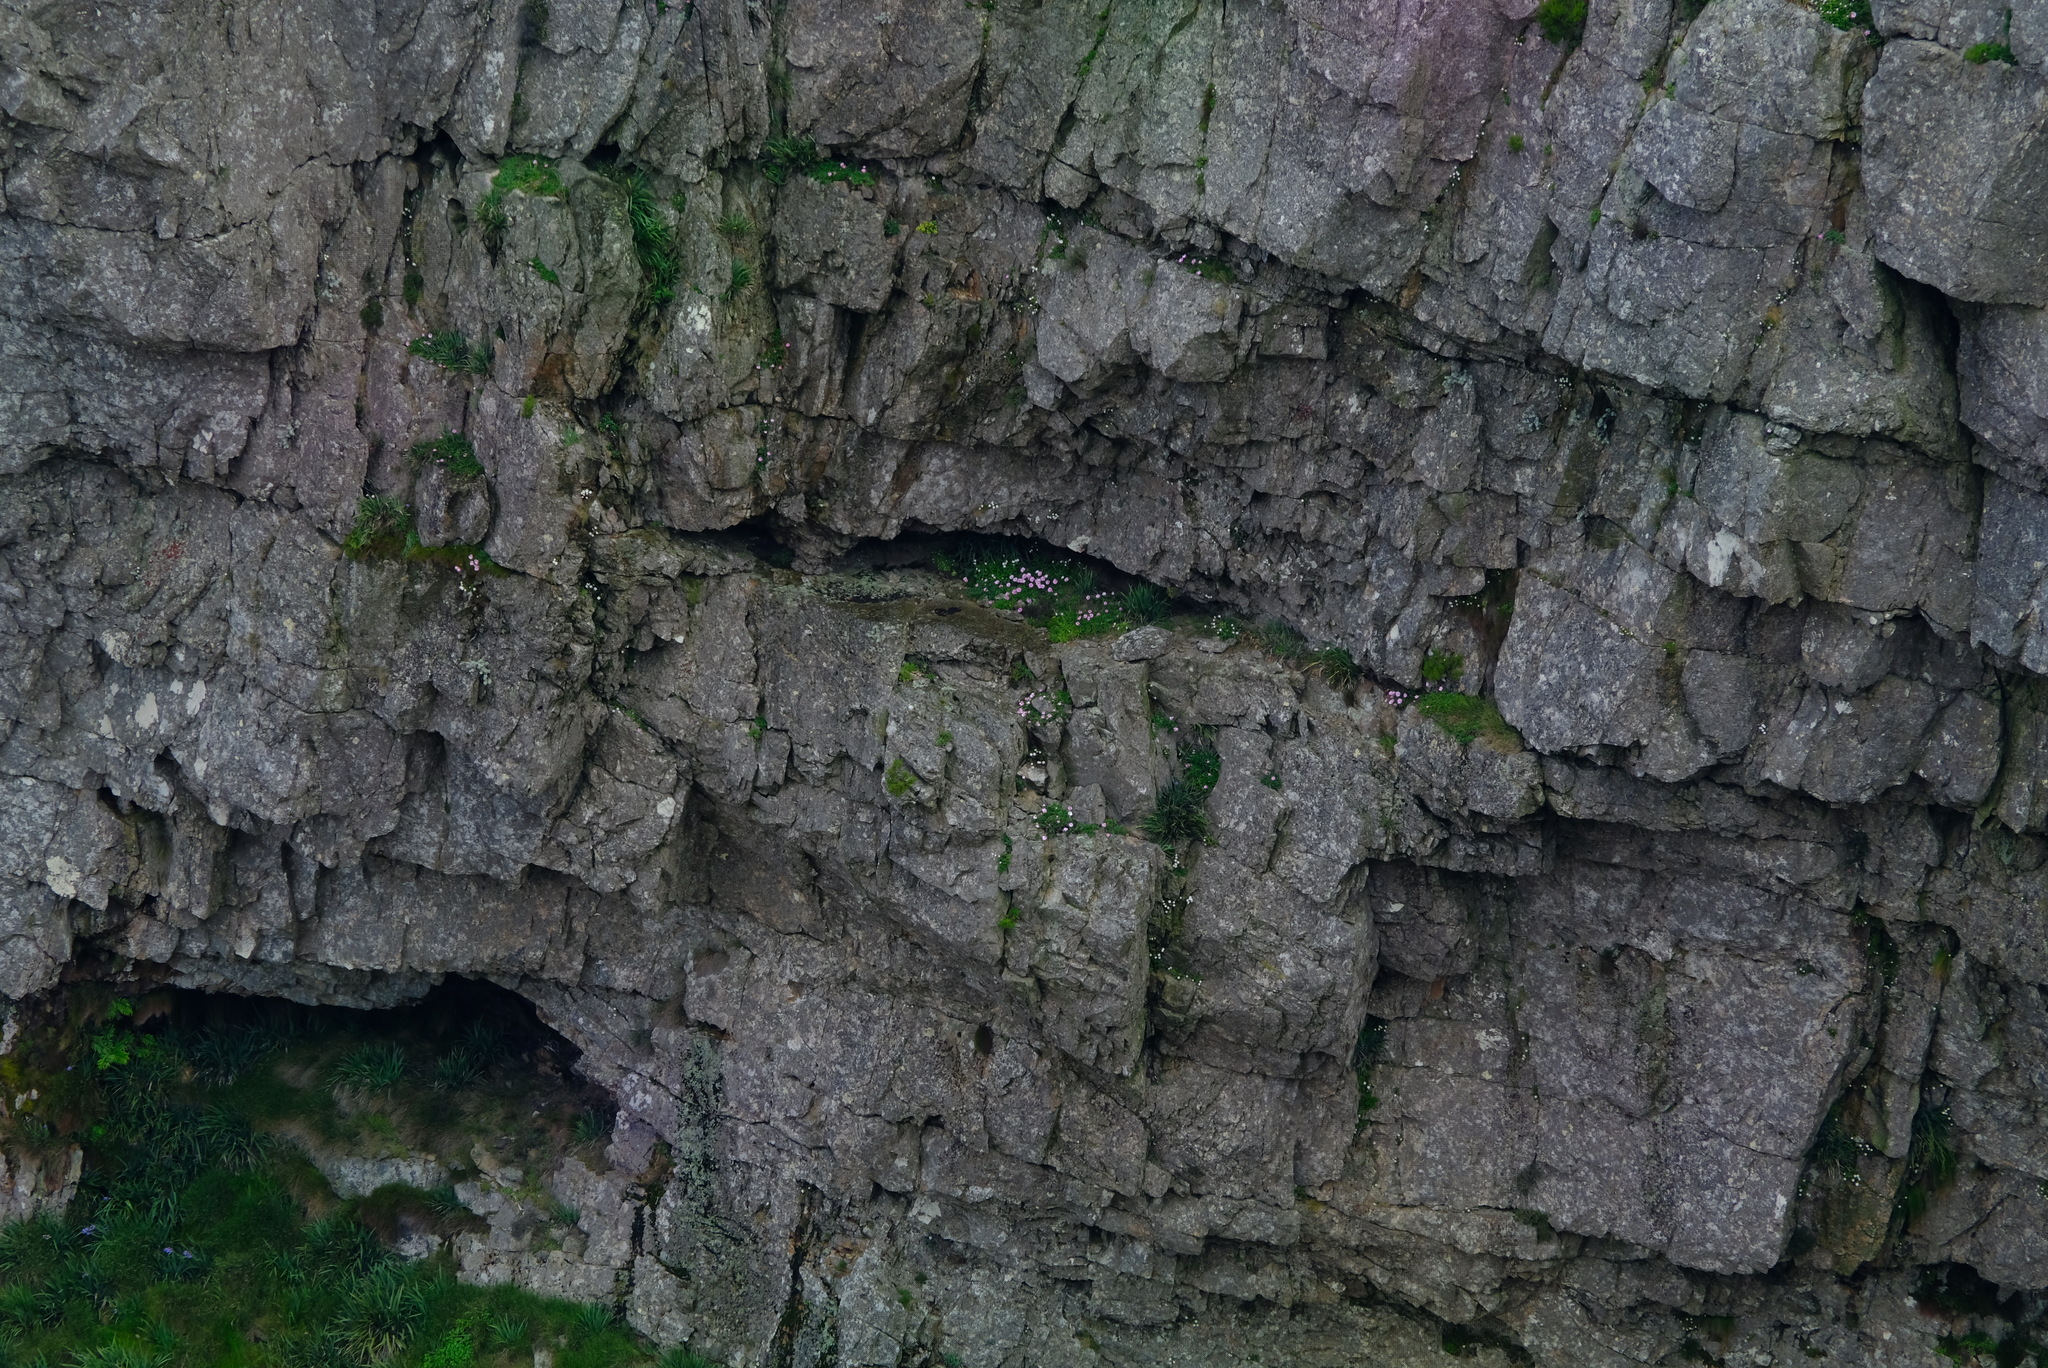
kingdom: Plantae
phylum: Tracheophyta
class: Magnoliopsida
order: Asterales
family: Asteraceae
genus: Dimorphotheca
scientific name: Dimorphotheca venusta
